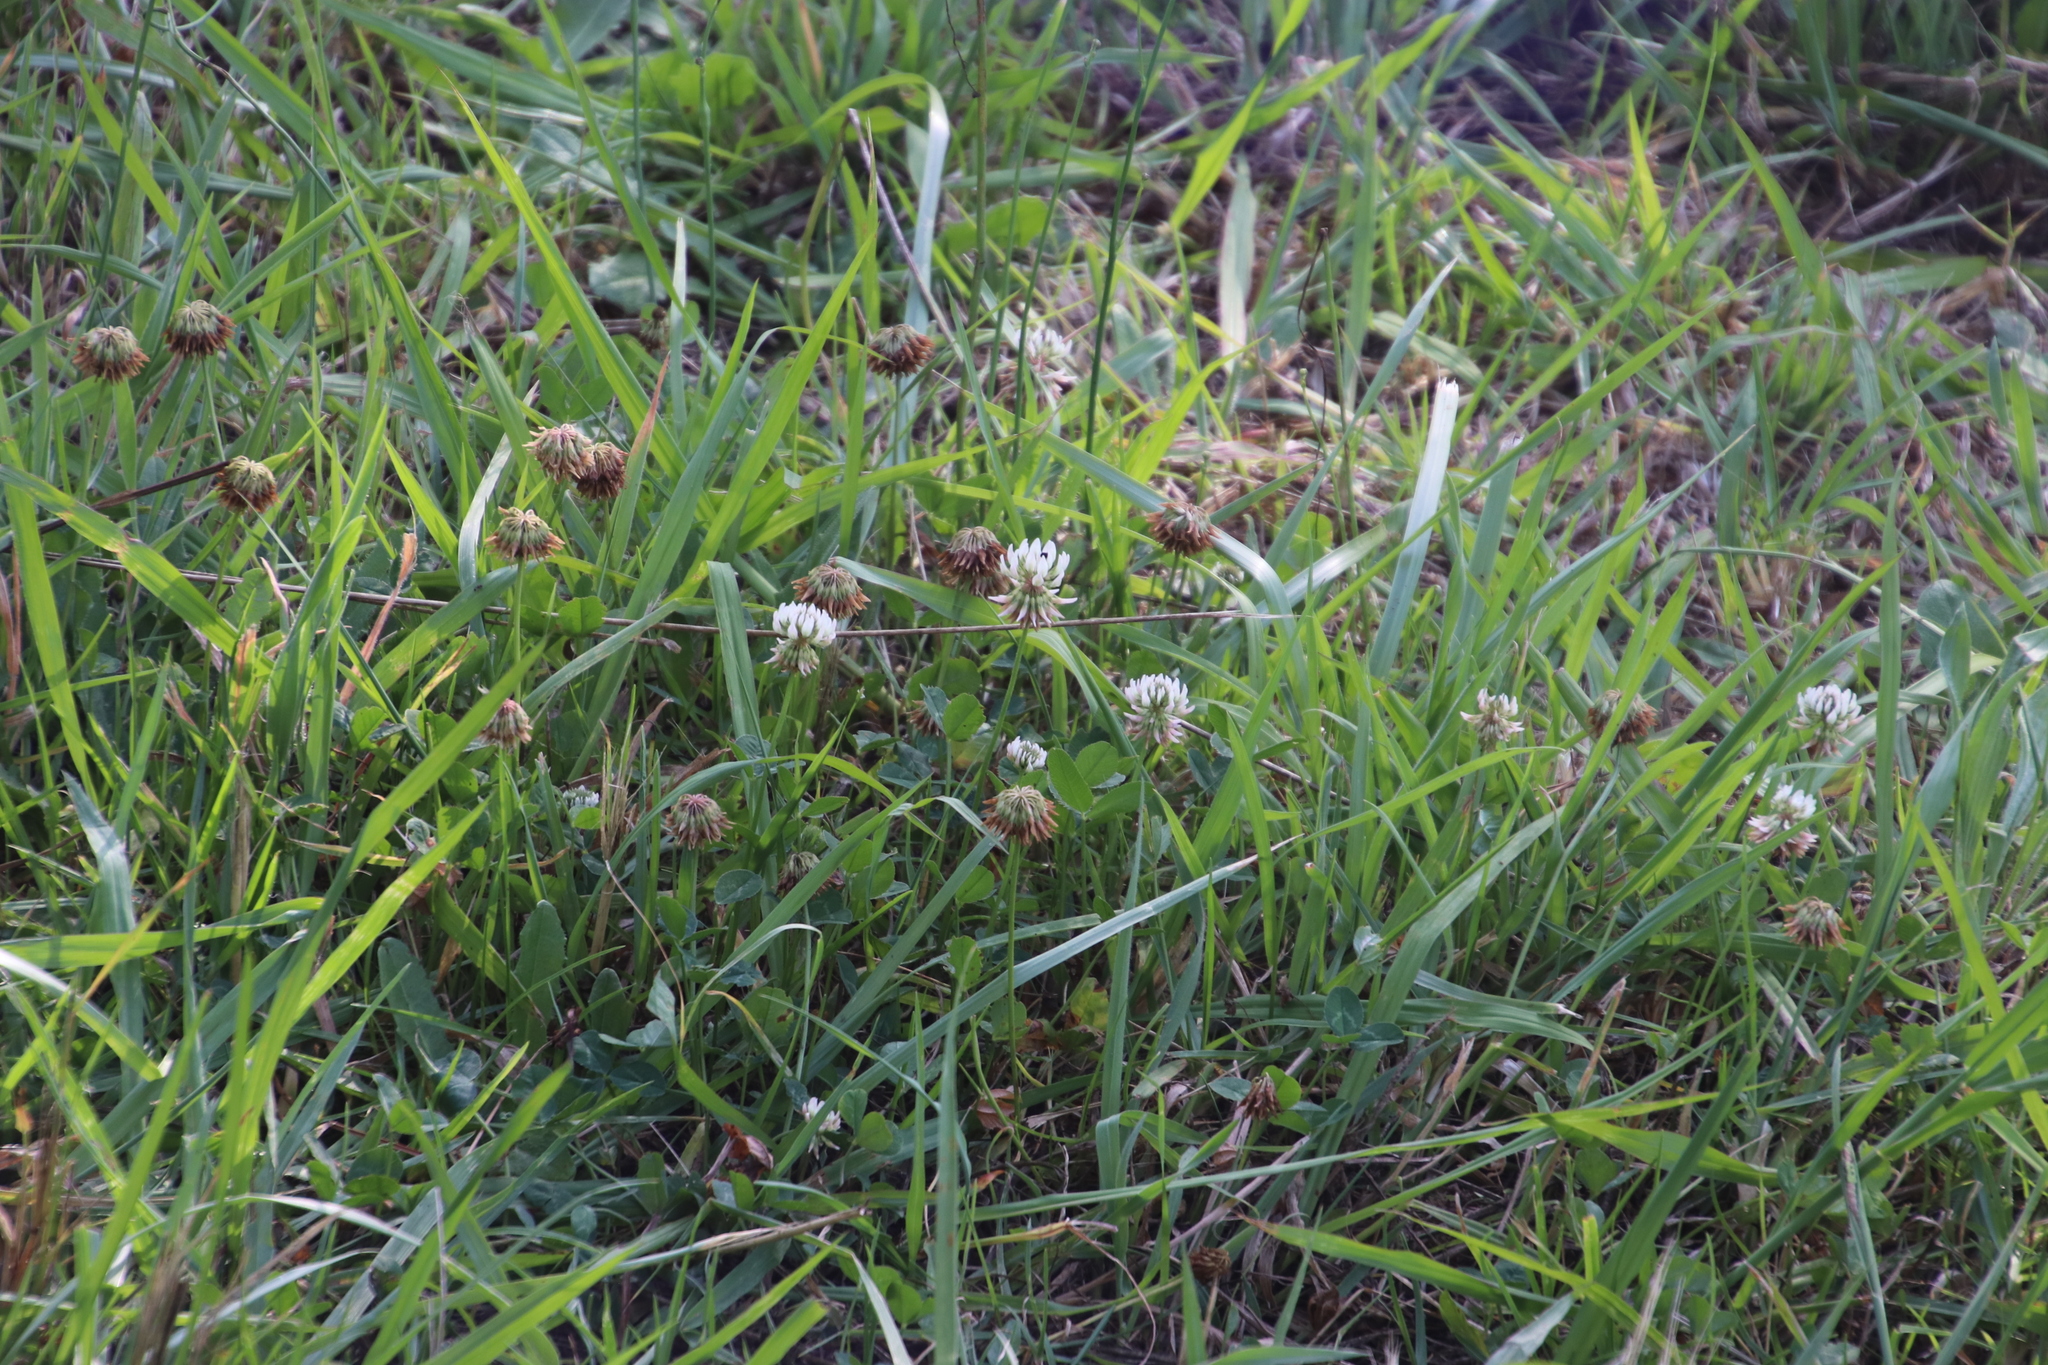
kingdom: Plantae
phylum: Tracheophyta
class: Magnoliopsida
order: Fabales
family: Fabaceae
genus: Trifolium
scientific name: Trifolium repens
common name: White clover
